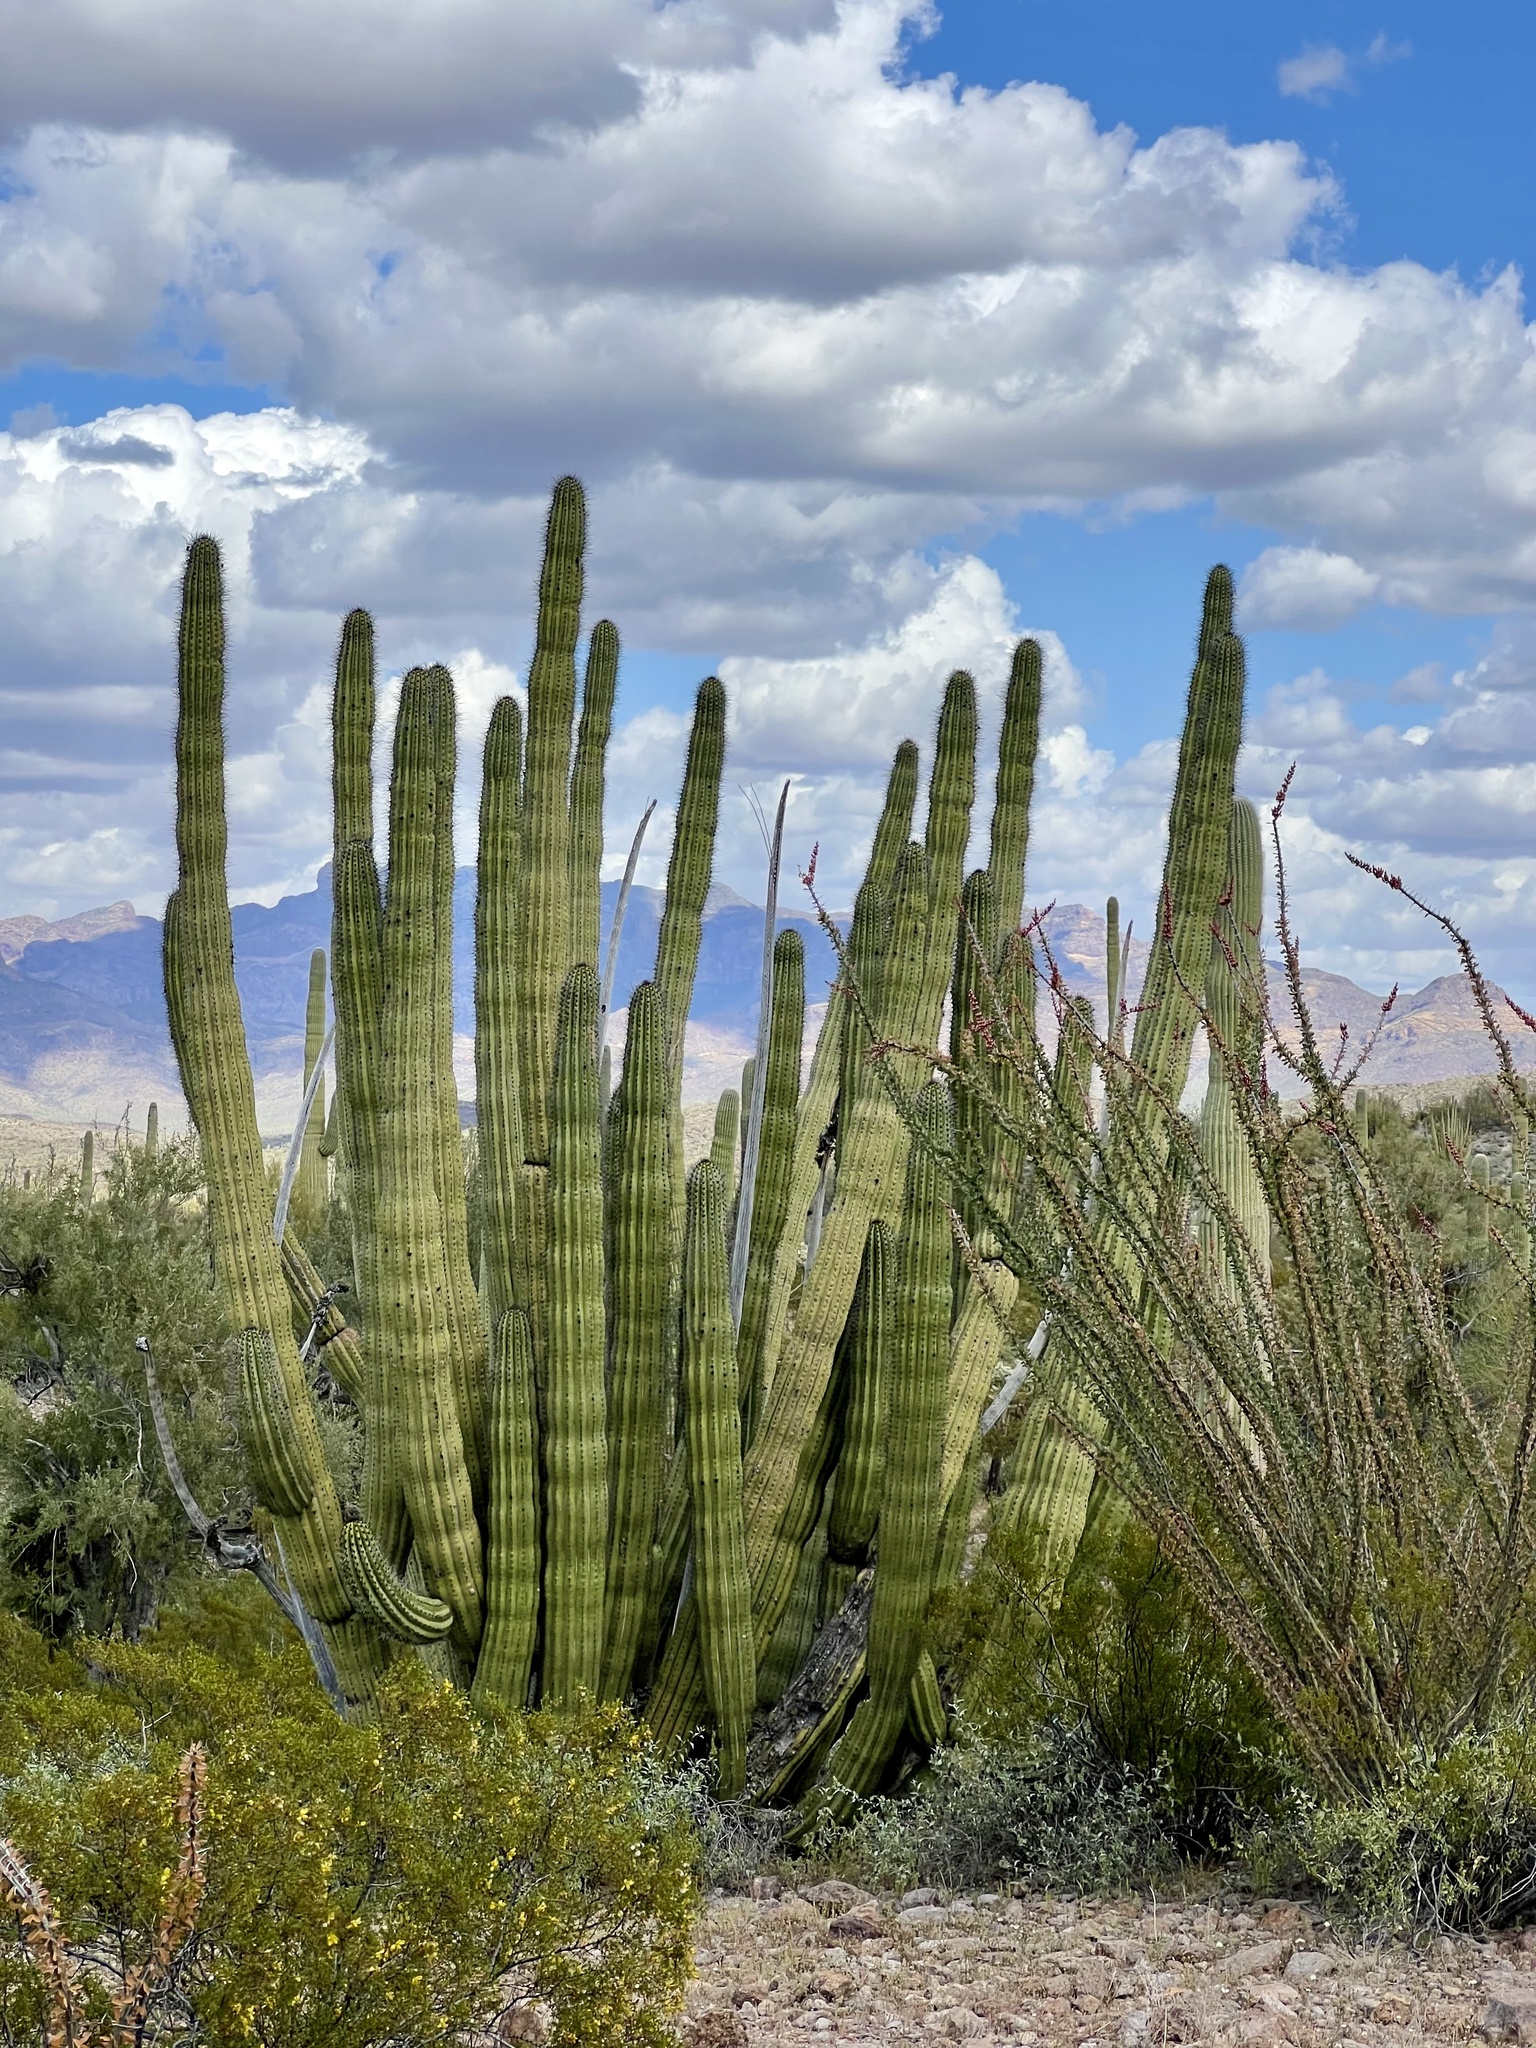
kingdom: Plantae
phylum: Tracheophyta
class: Magnoliopsida
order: Caryophyllales
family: Cactaceae
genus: Stenocereus
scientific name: Stenocereus thurberi
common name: Organ pipe cactus
